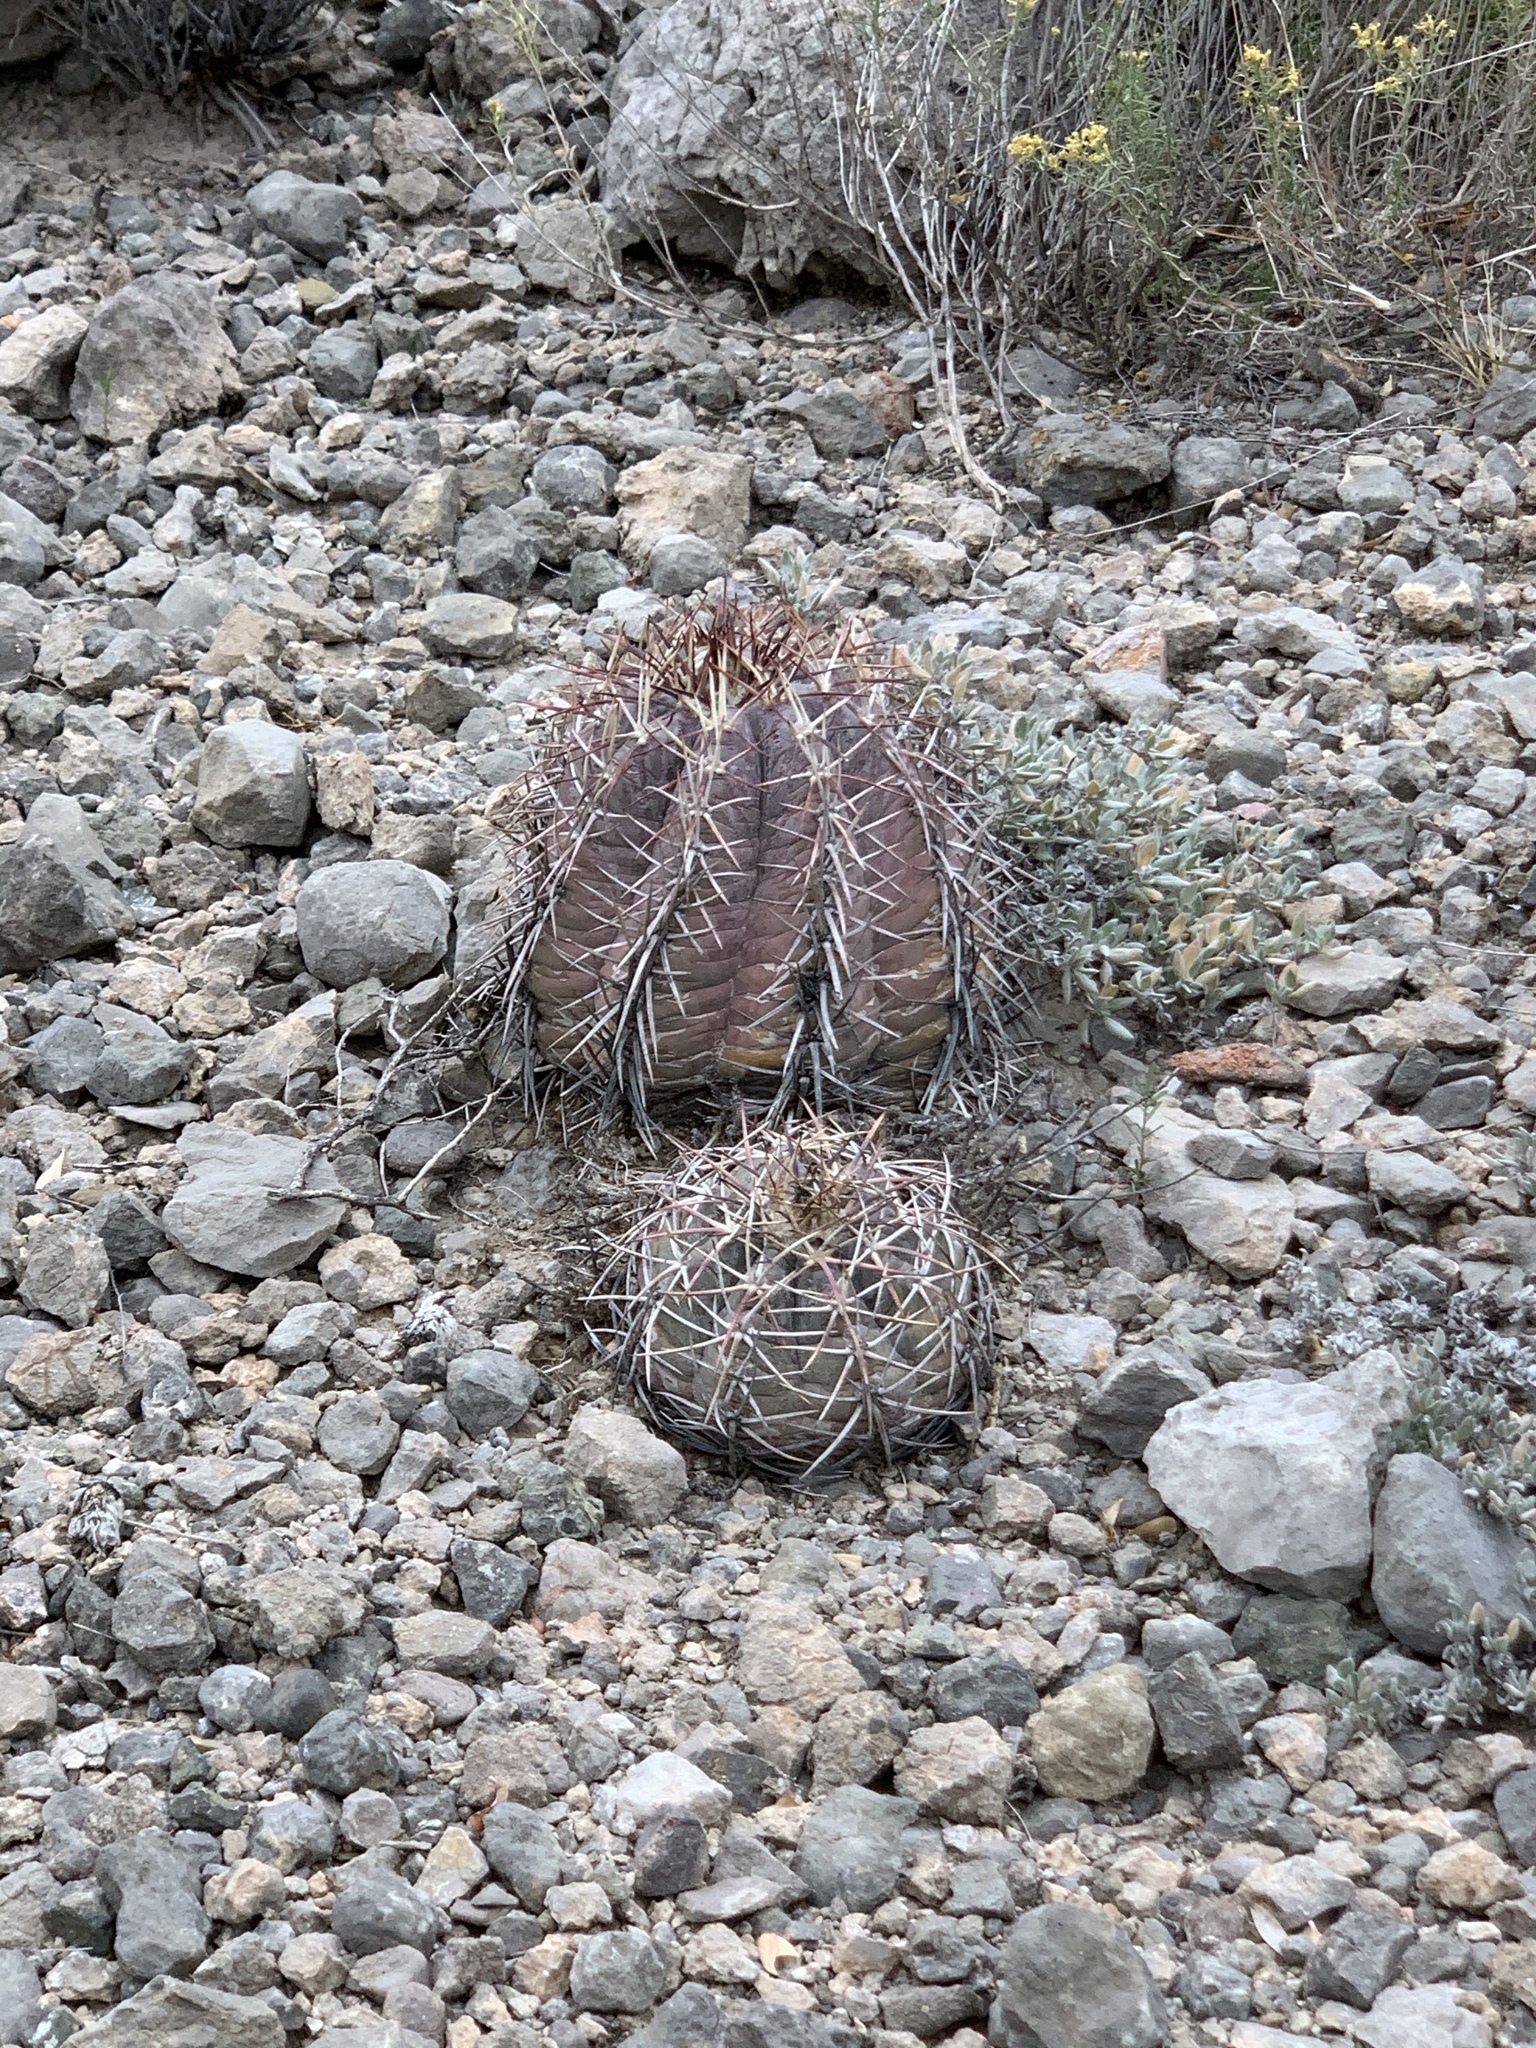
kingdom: Plantae
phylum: Tracheophyta
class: Magnoliopsida
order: Caryophyllales
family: Cactaceae
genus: Echinocactus
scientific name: Echinocactus horizonthalonius
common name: Devilshead
